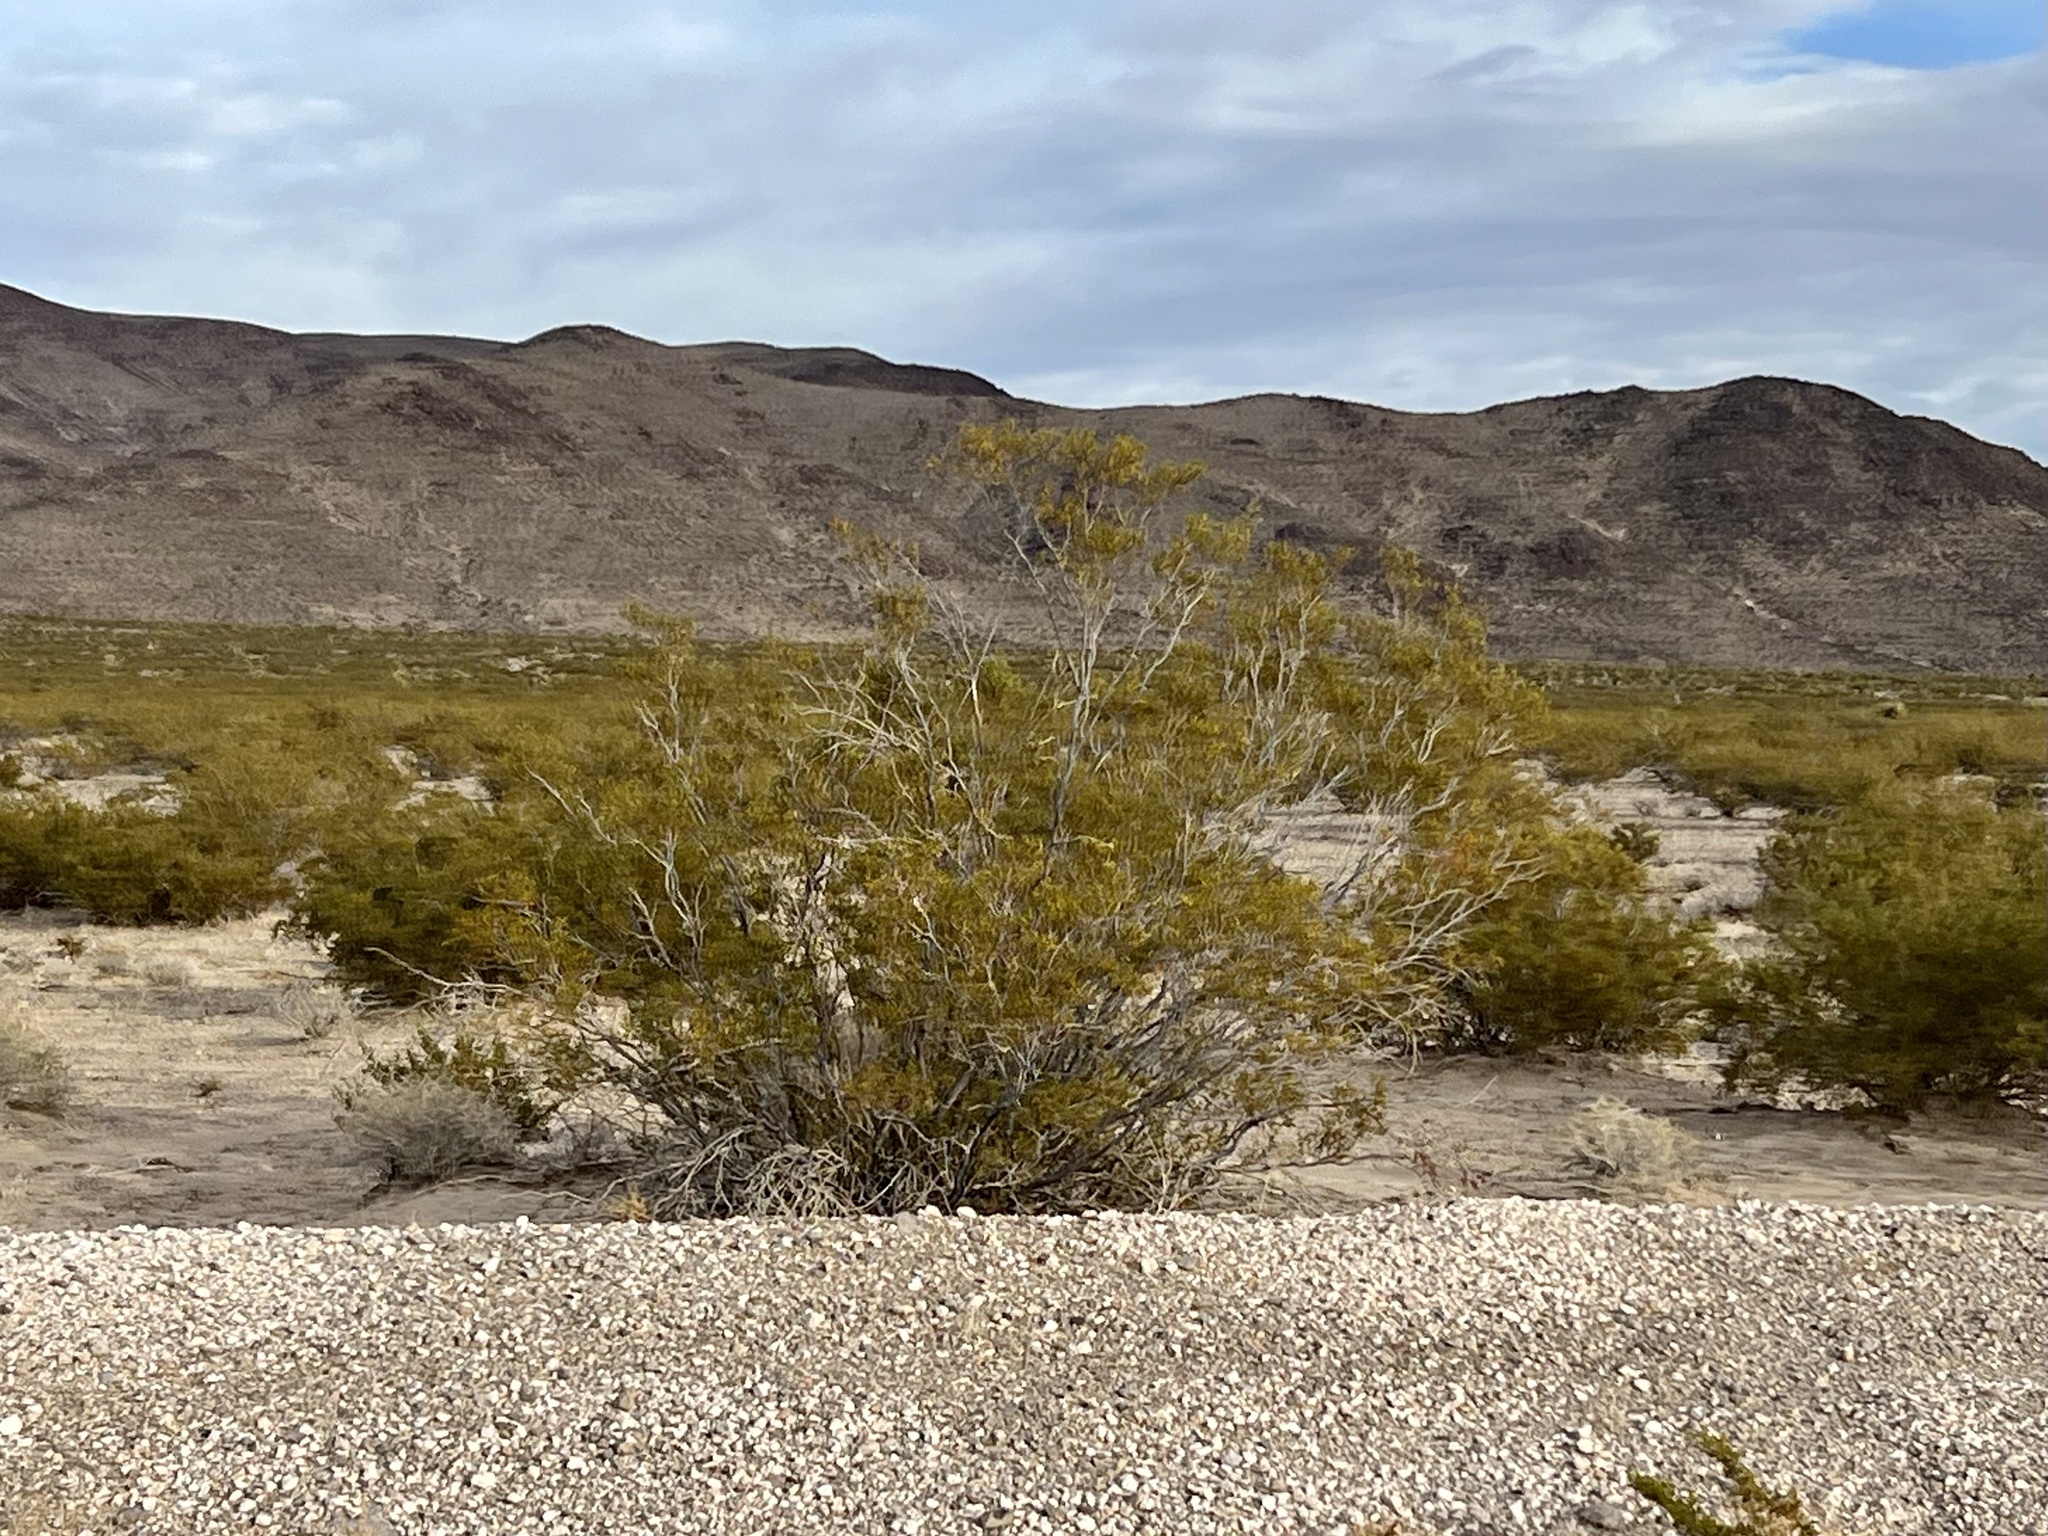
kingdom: Plantae
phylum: Tracheophyta
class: Magnoliopsida
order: Zygophyllales
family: Zygophyllaceae
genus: Larrea
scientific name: Larrea tridentata
